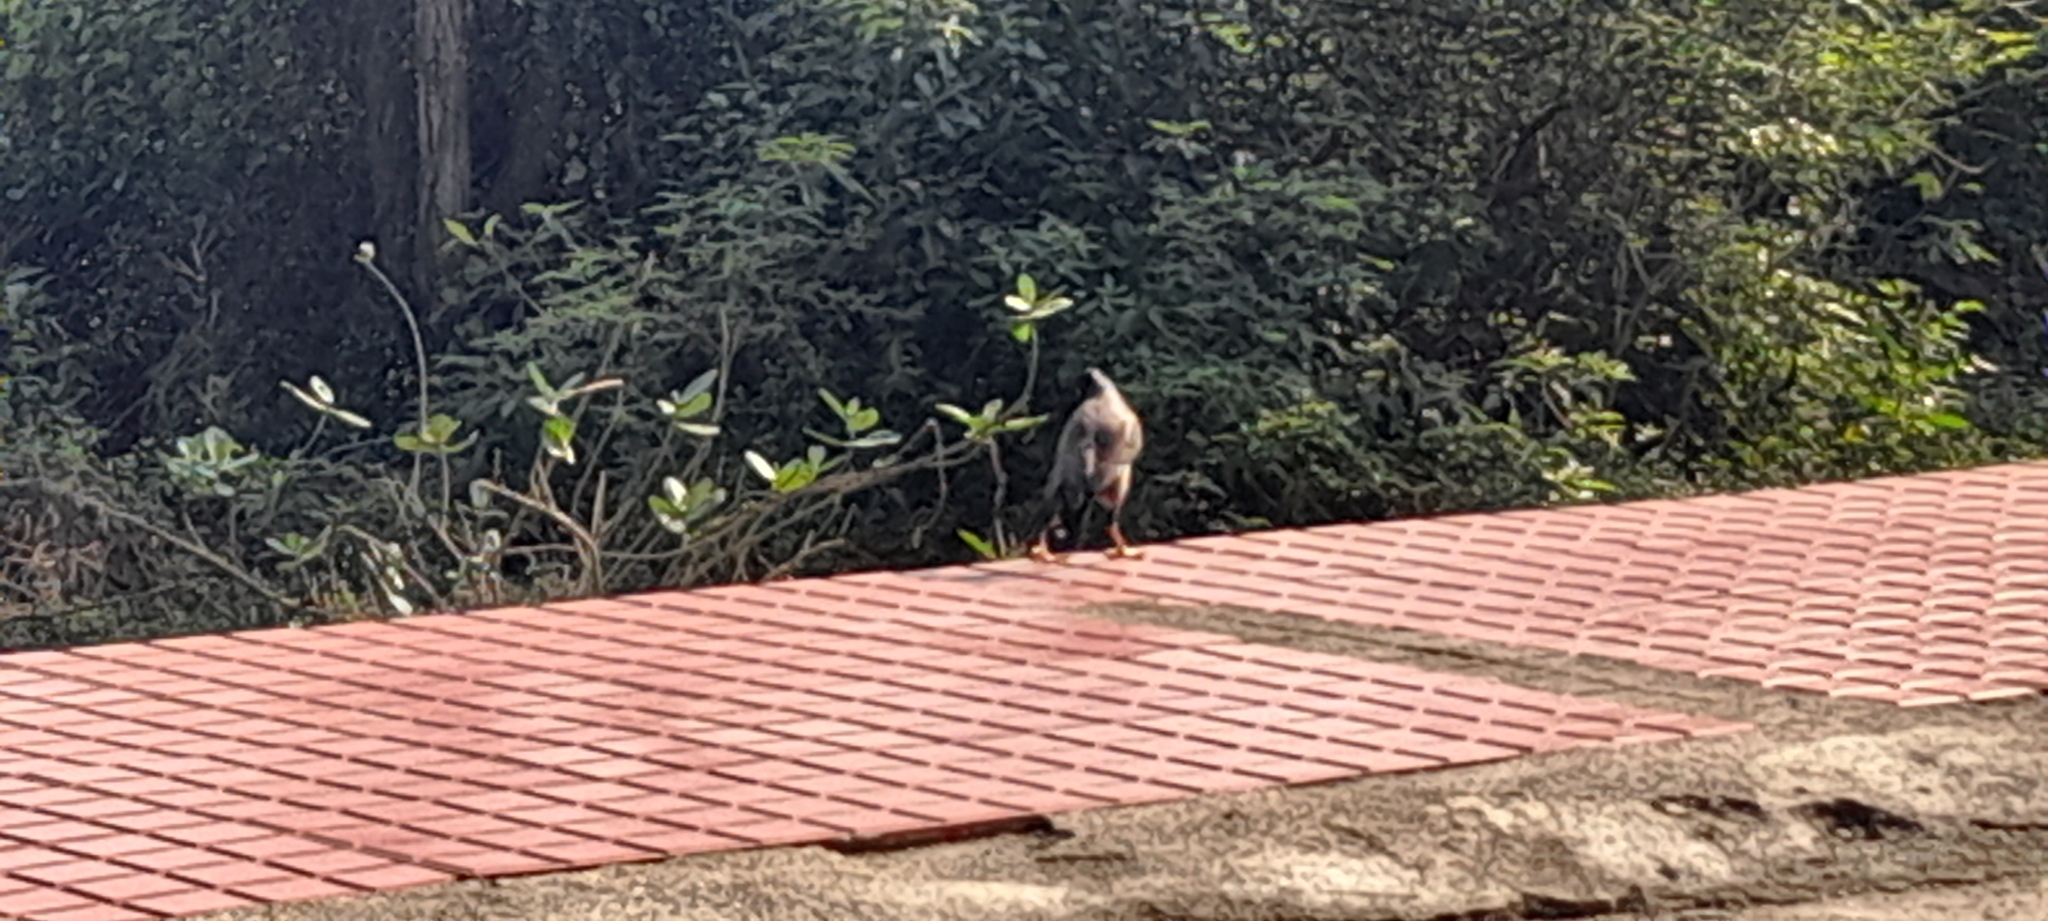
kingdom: Animalia
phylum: Chordata
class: Aves
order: Passeriformes
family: Sturnidae
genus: Acridotheres
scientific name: Acridotheres tristis
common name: Common myna
